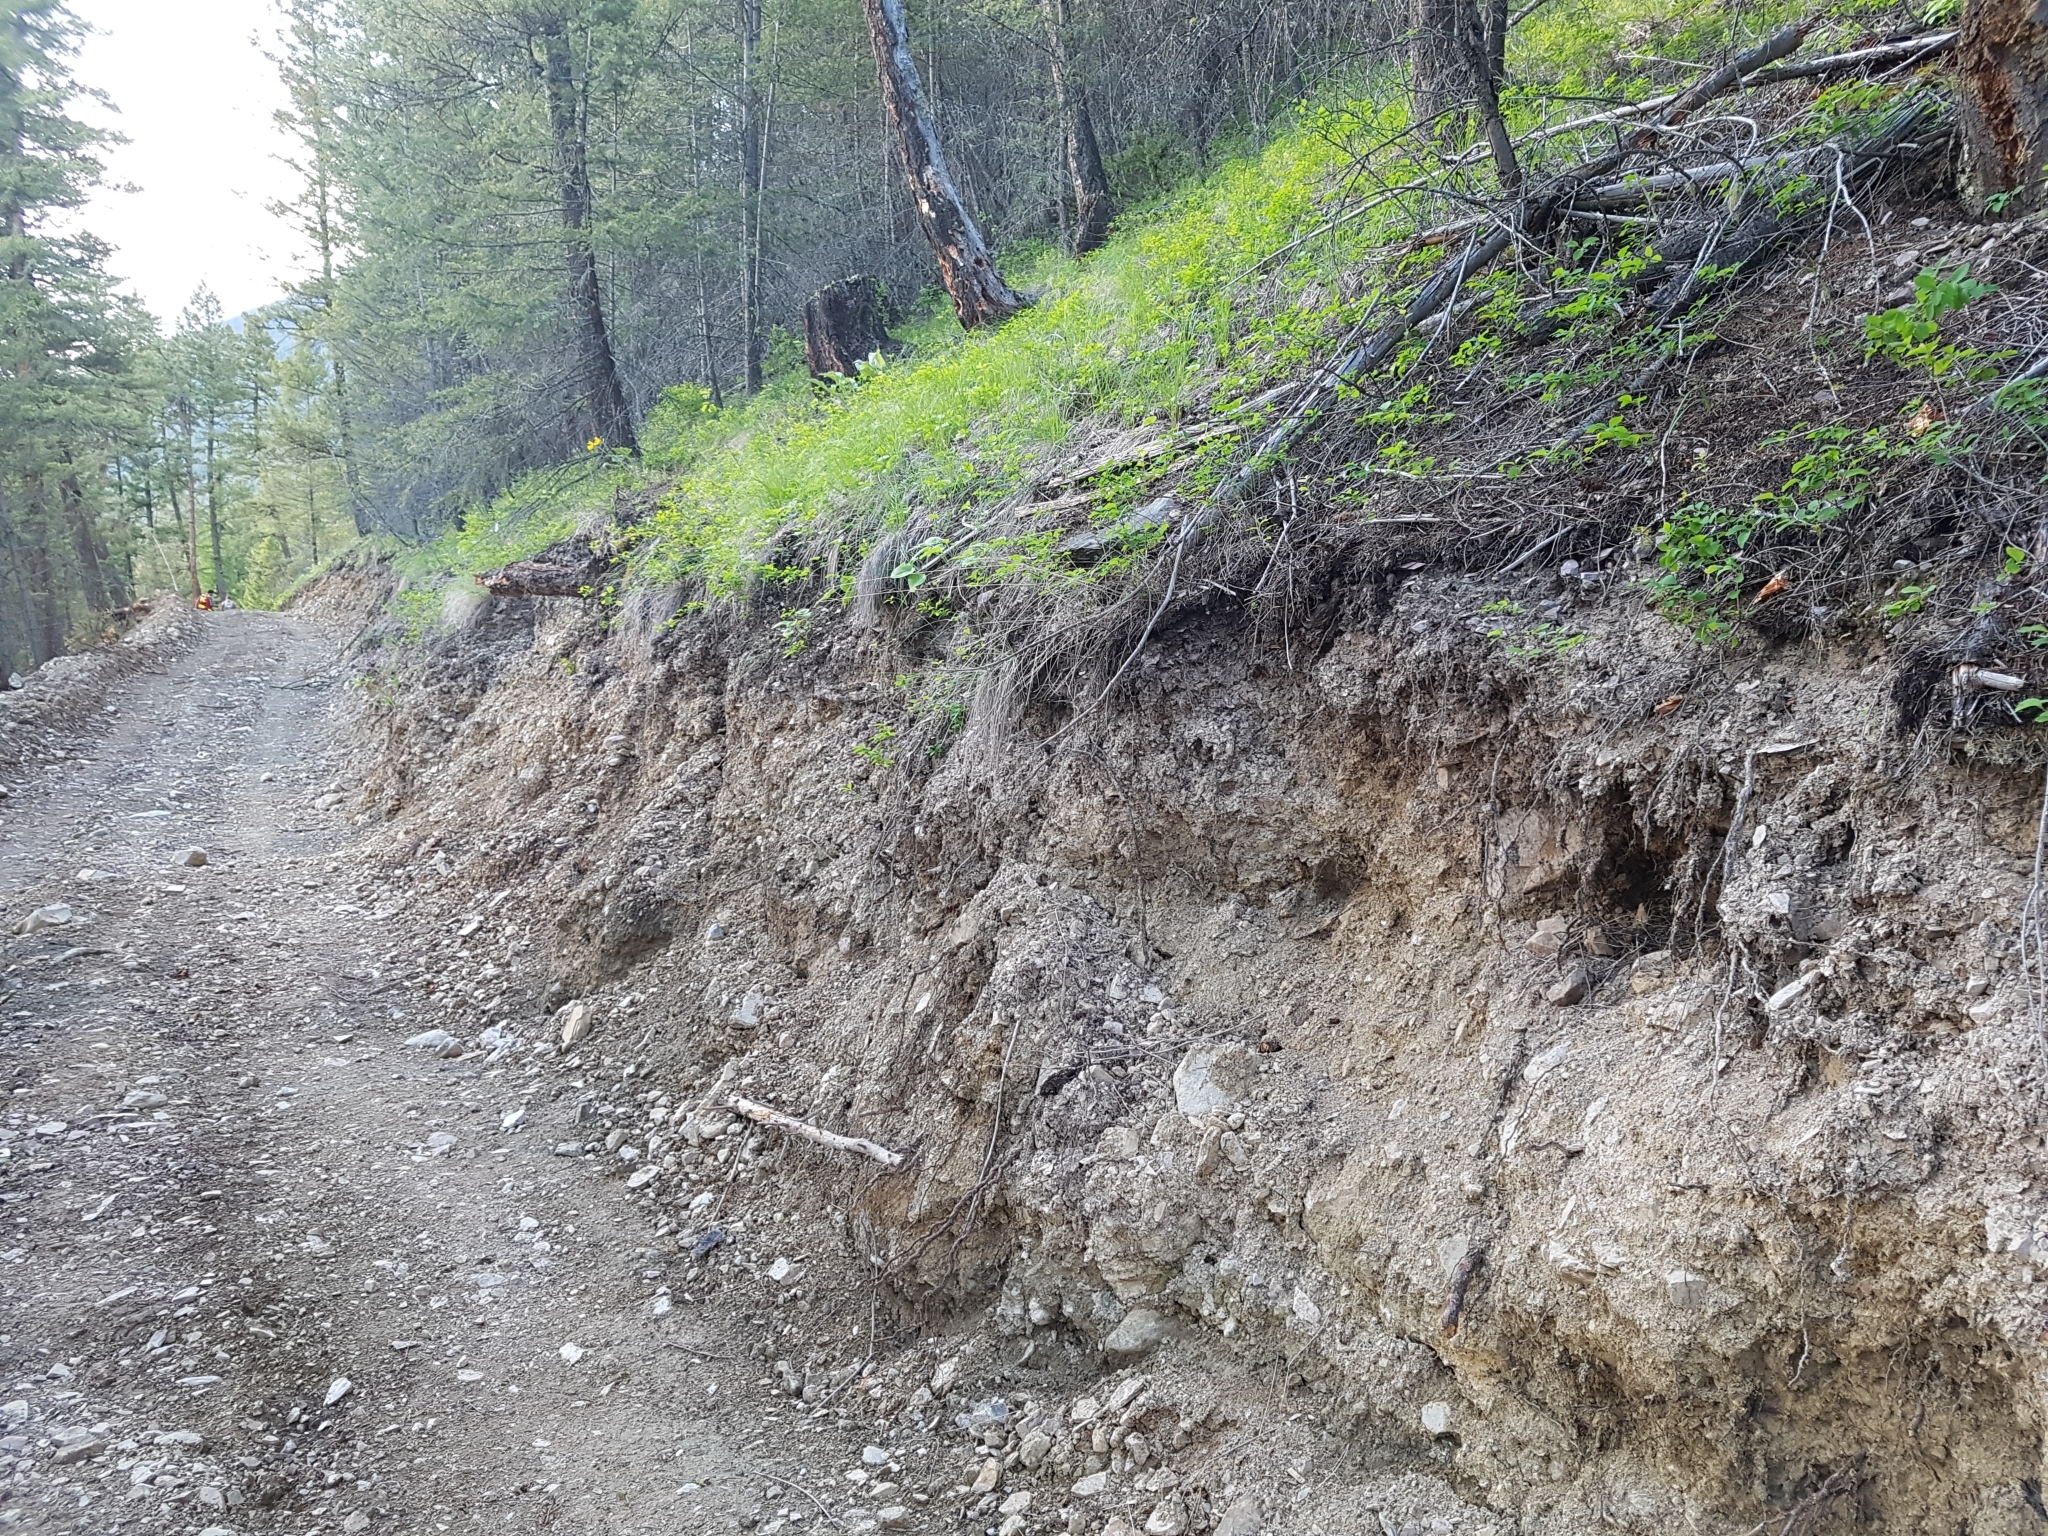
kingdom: Animalia
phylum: Chordata
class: Aves
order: Passeriformes
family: Turdidae
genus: Myadestes
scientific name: Myadestes townsendi
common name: Townsend's solitaire
